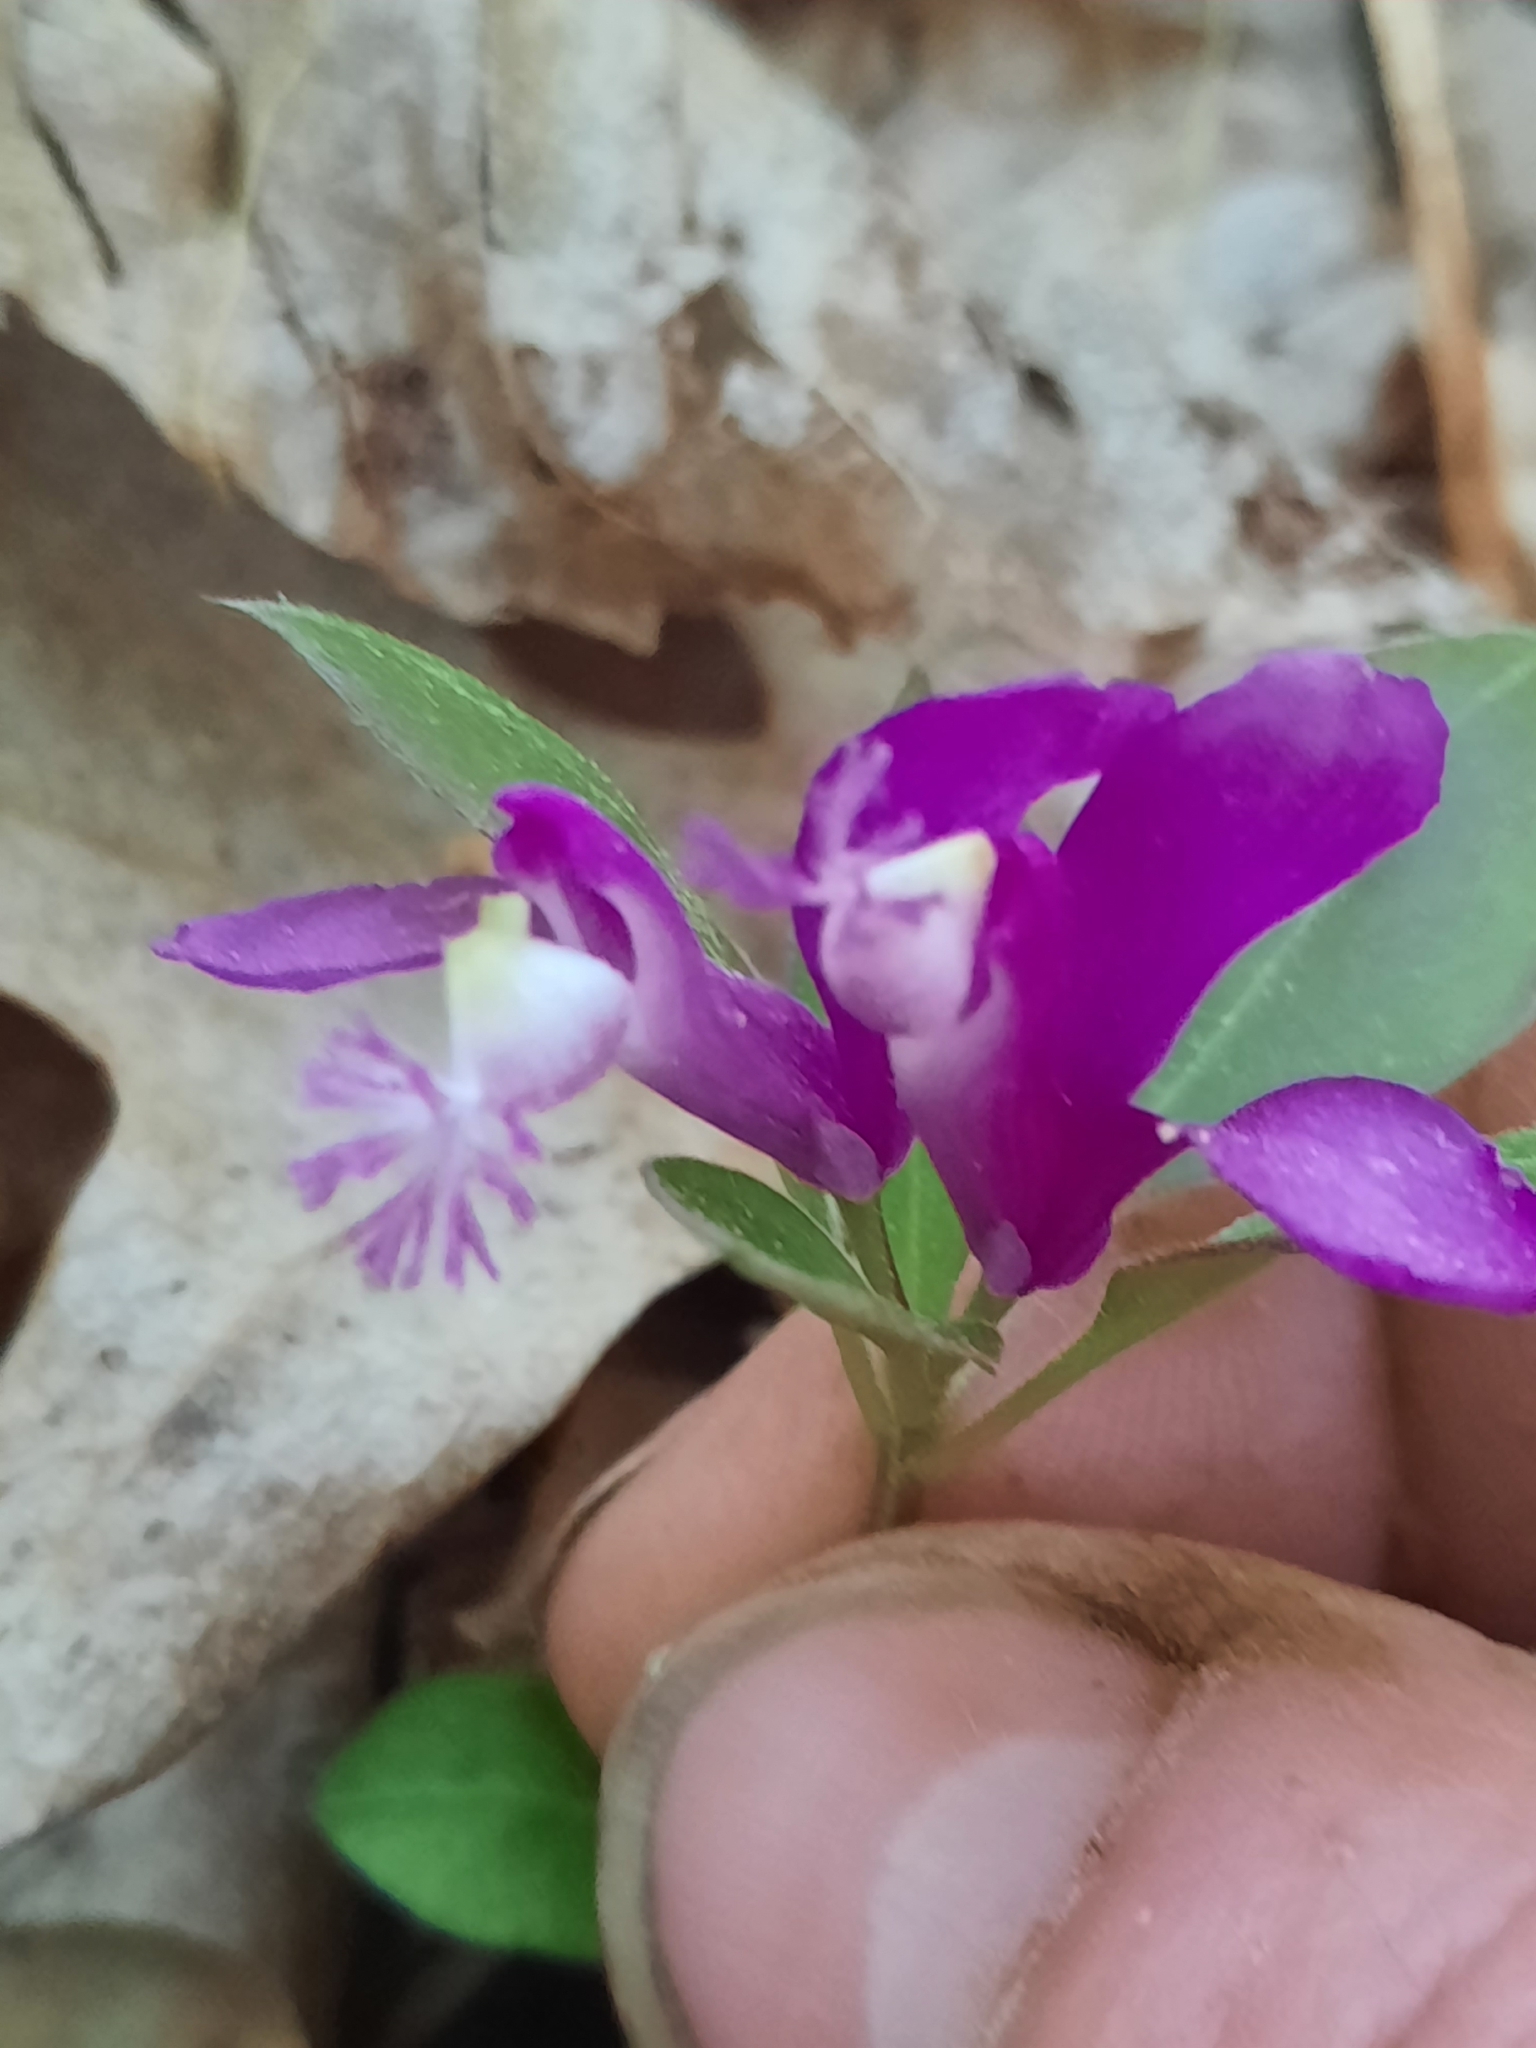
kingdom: Plantae
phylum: Tracheophyta
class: Magnoliopsida
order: Fabales
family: Polygalaceae
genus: Polygaloides
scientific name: Polygaloides paucifolia
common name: Bird-on-the-wing
